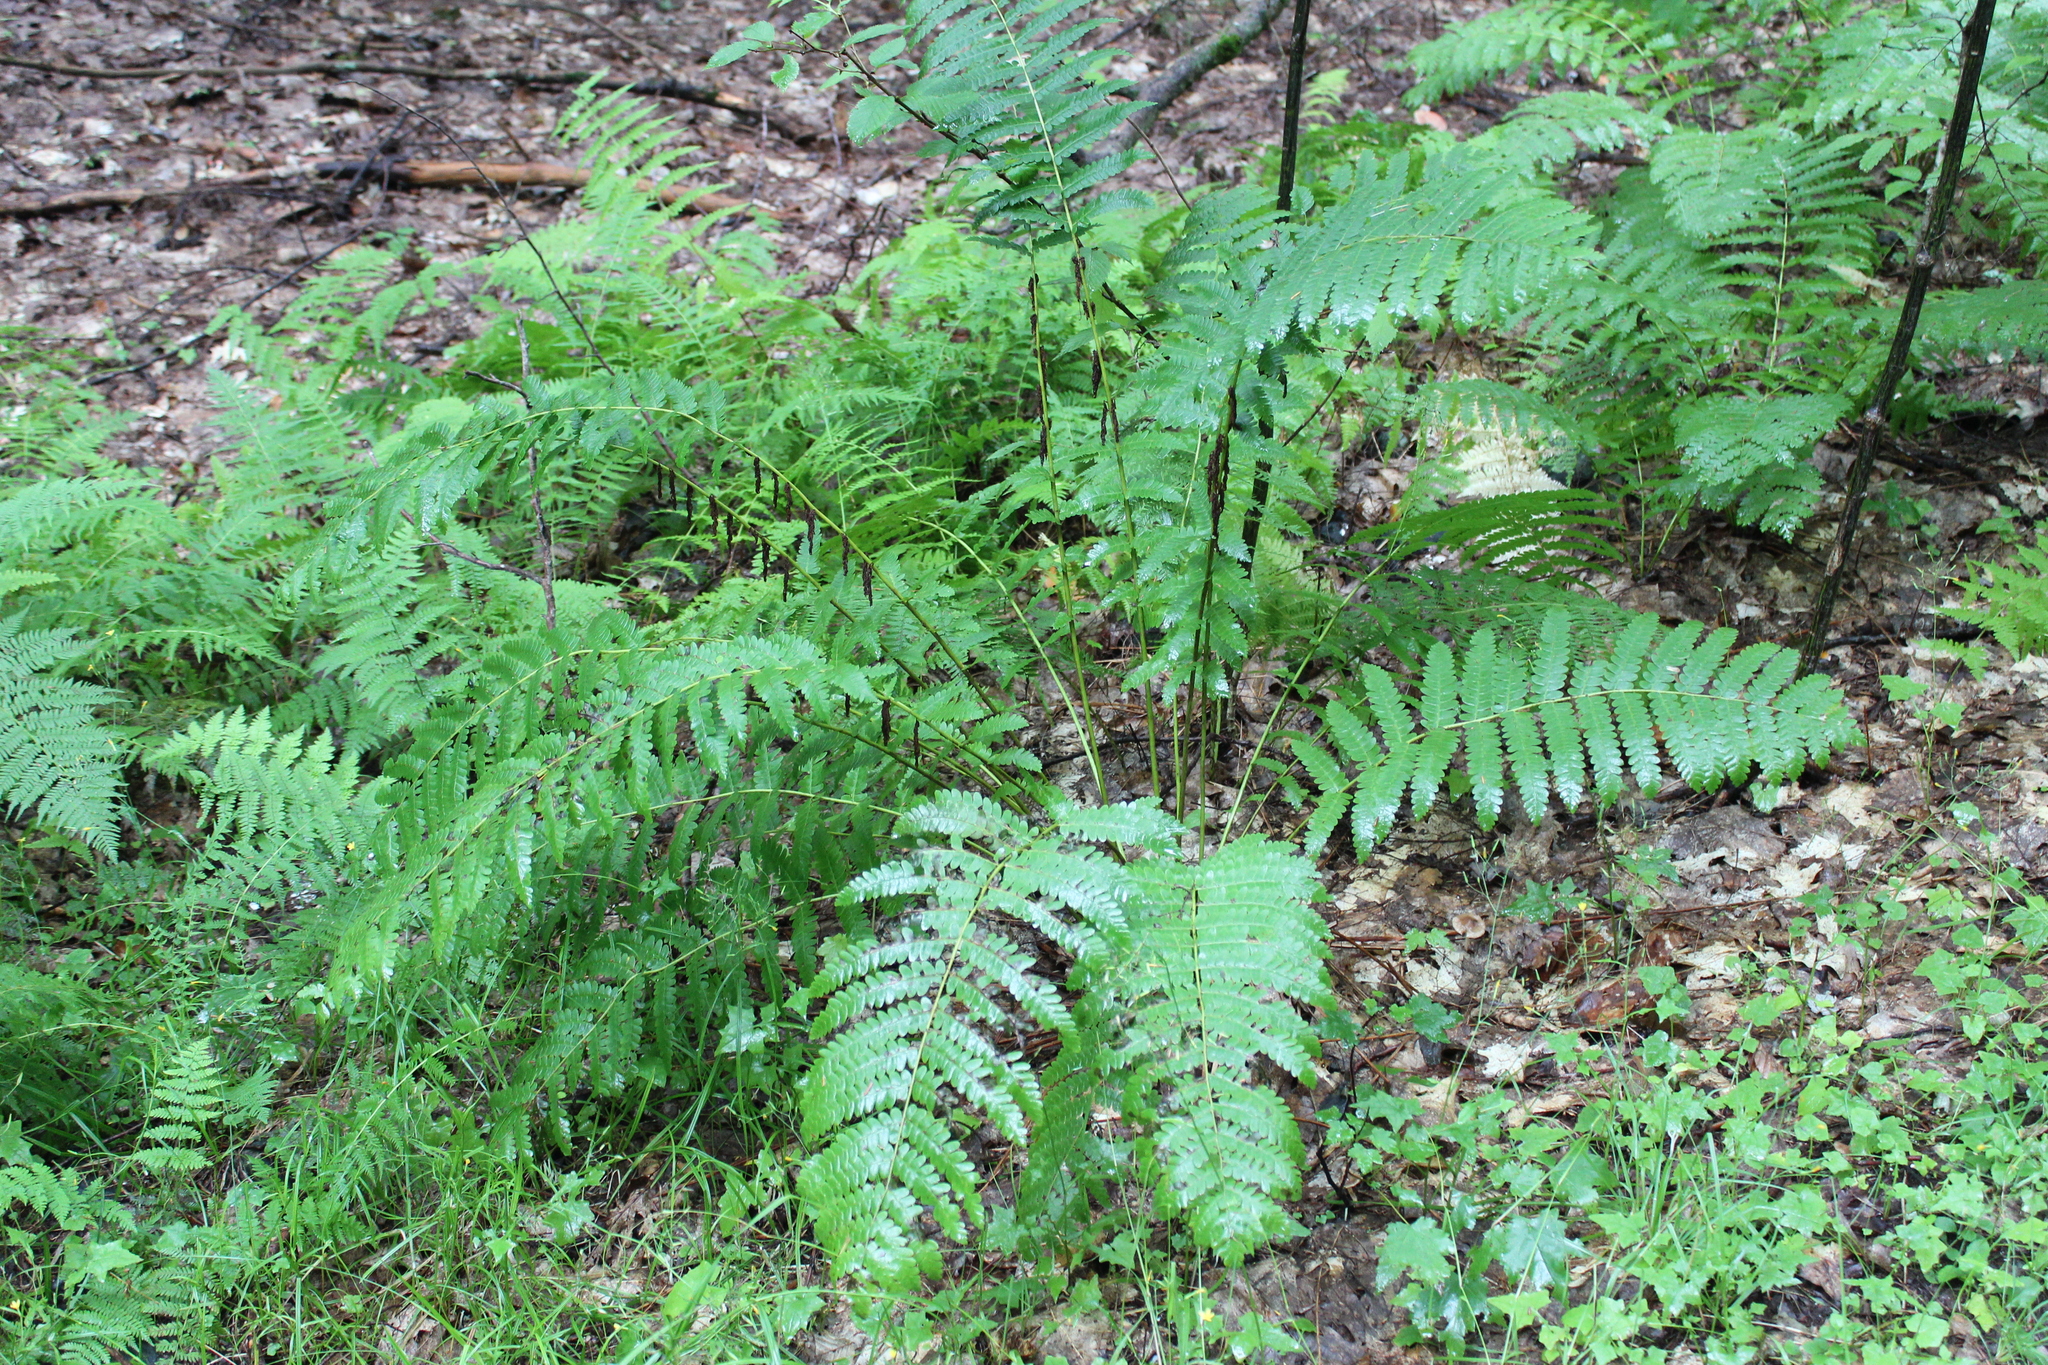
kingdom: Plantae
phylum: Tracheophyta
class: Polypodiopsida
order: Osmundales
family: Osmundaceae
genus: Claytosmunda
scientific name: Claytosmunda claytoniana
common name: Clayton's fern
